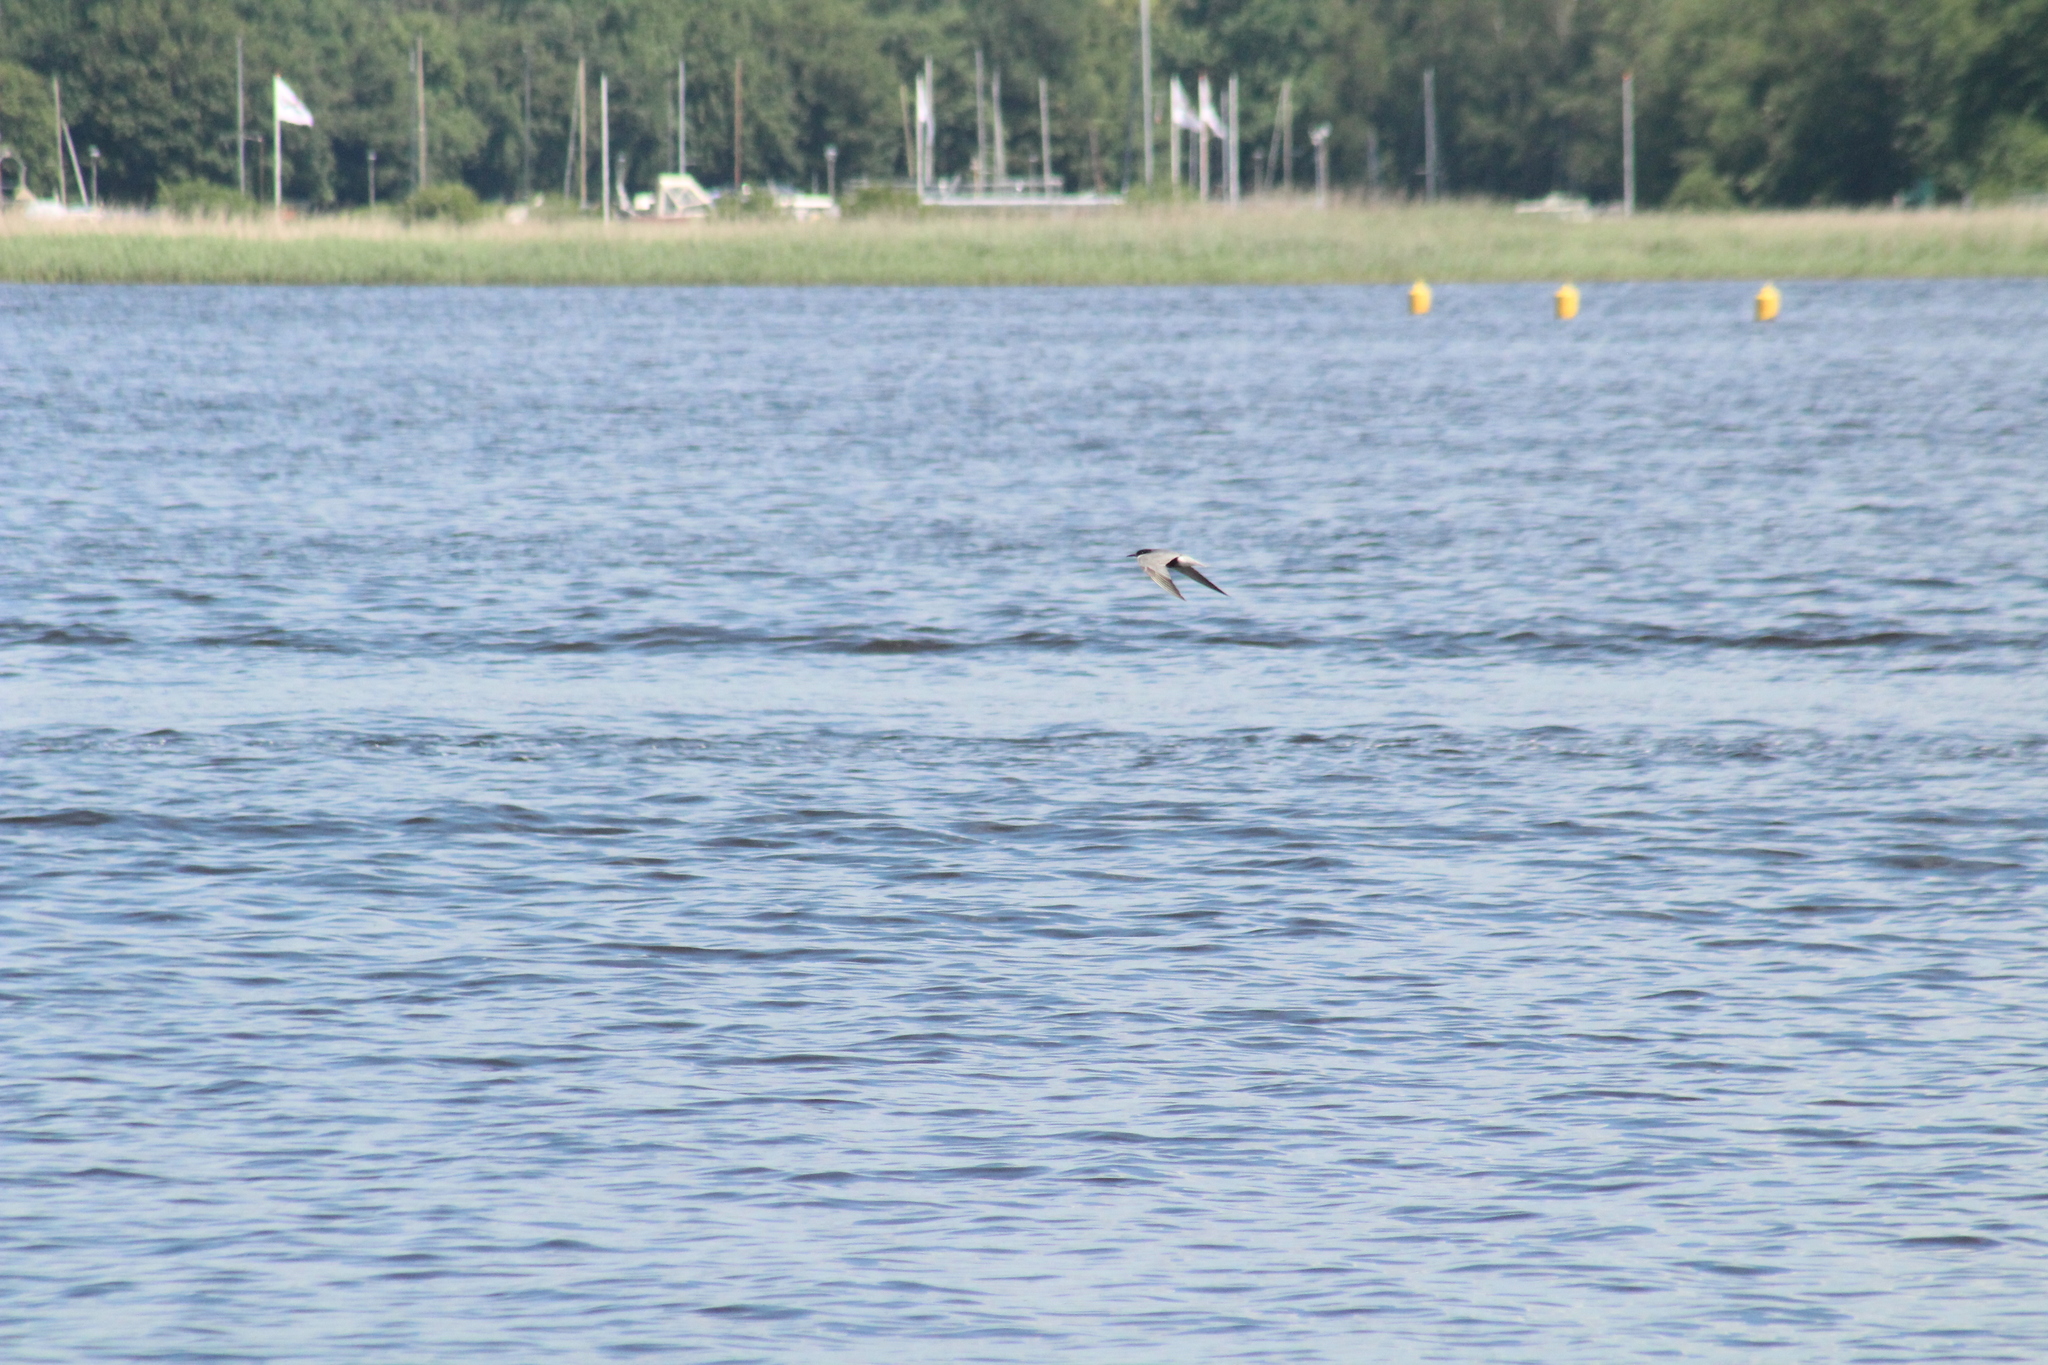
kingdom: Animalia
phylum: Chordata
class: Aves
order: Charadriiformes
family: Laridae
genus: Chlidonias
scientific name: Chlidonias hybrida
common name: Whiskered tern
